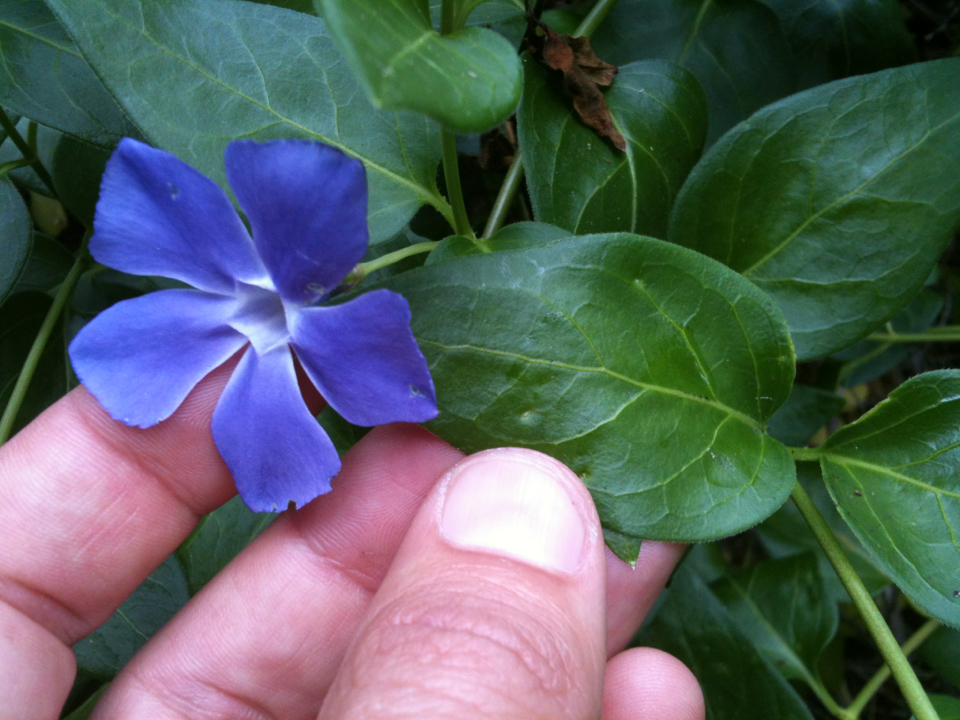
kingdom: Plantae
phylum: Tracheophyta
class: Magnoliopsida
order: Gentianales
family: Apocynaceae
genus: Vinca
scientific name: Vinca major
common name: Greater periwinkle
